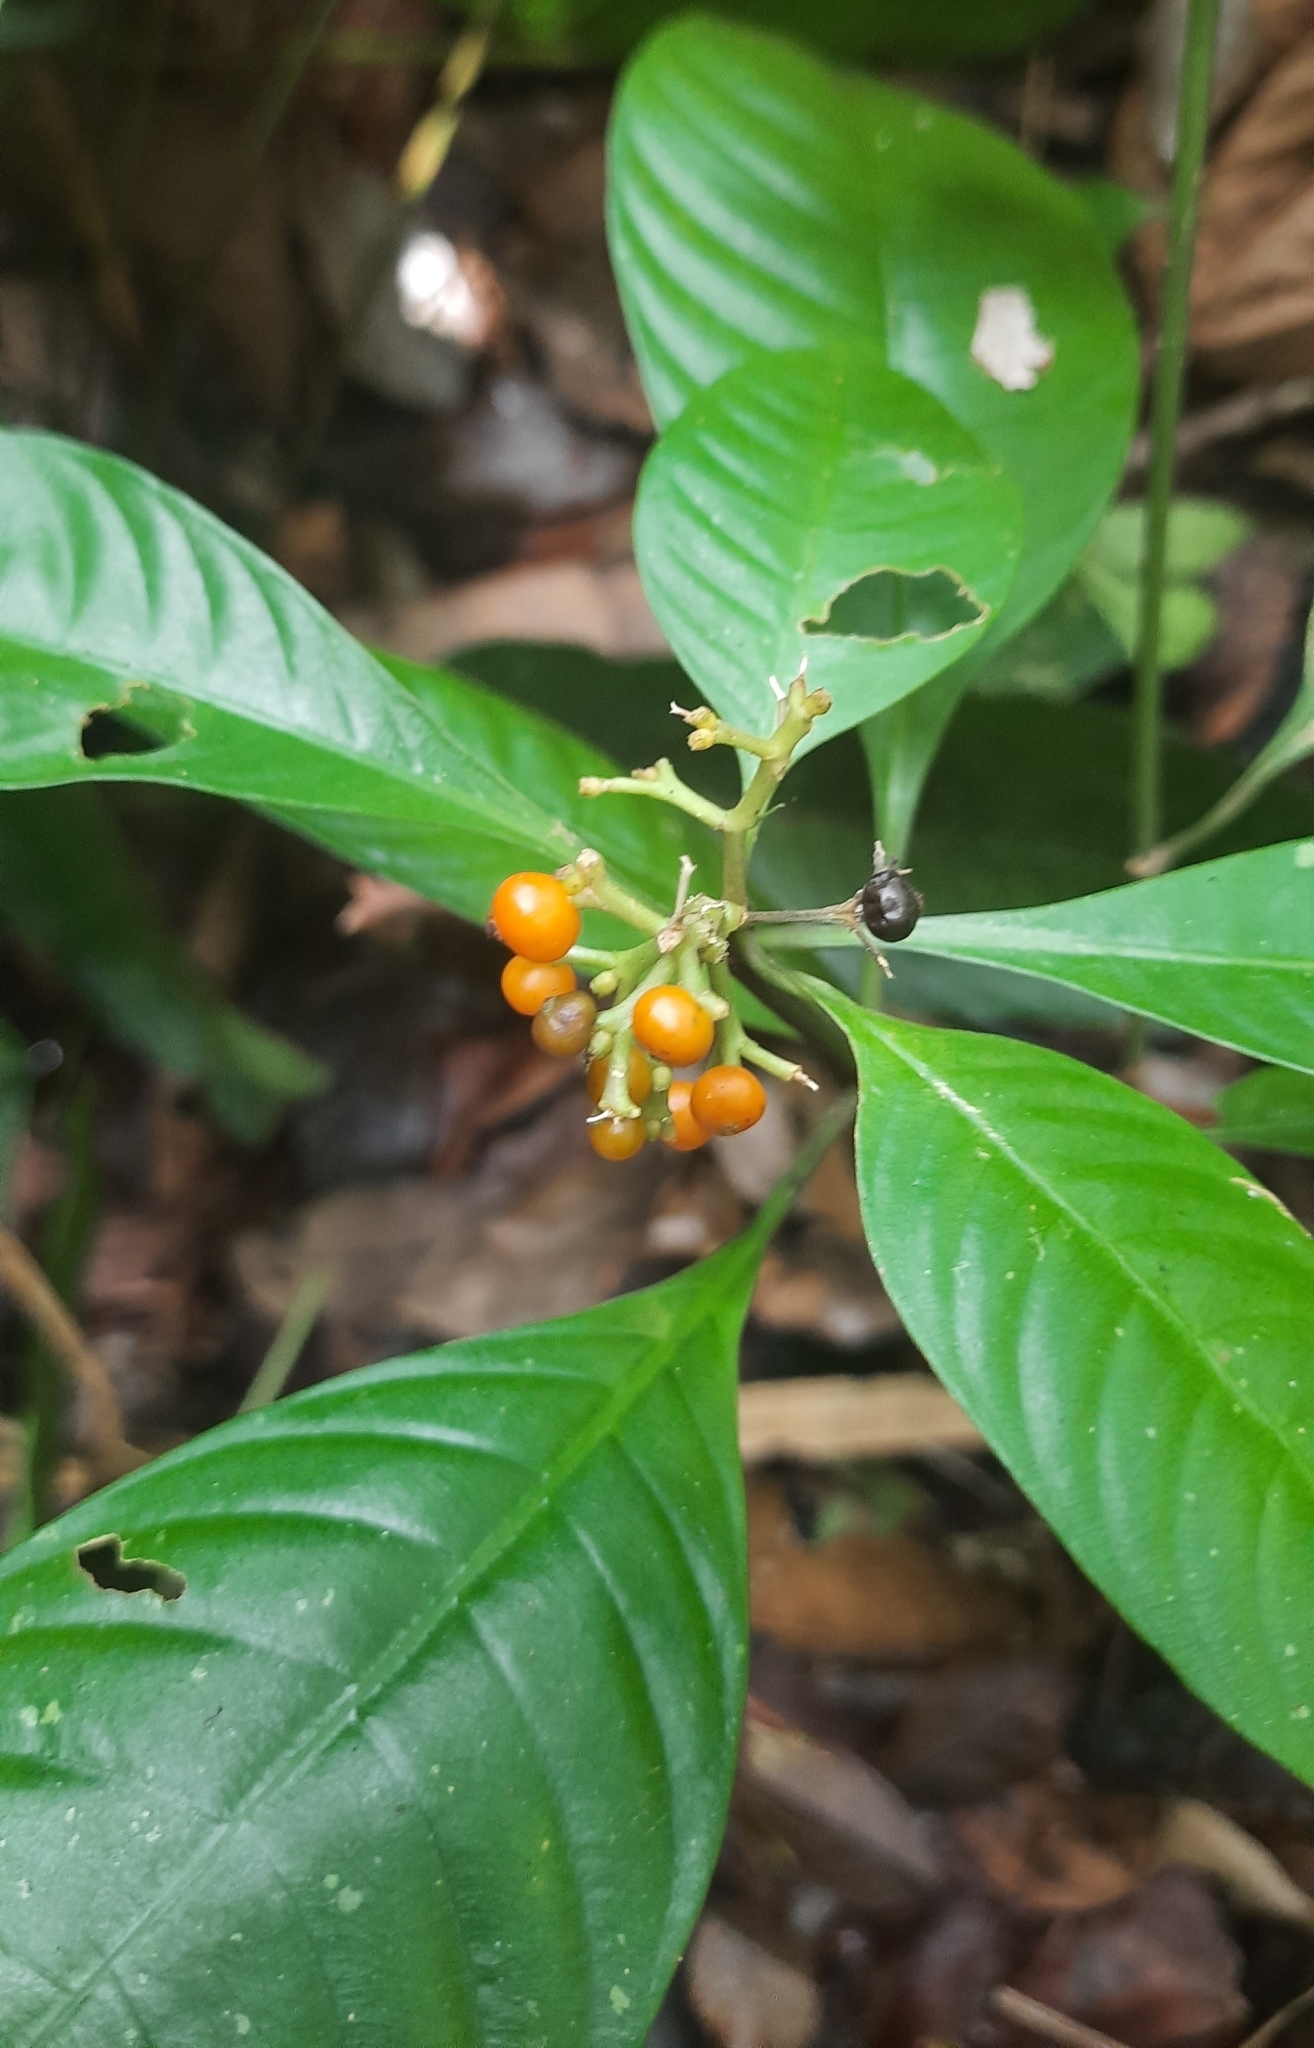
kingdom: Plantae
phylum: Tracheophyta
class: Magnoliopsida
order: Gentianales
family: Rubiaceae
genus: Palicourea
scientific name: Palicourea racemosa
